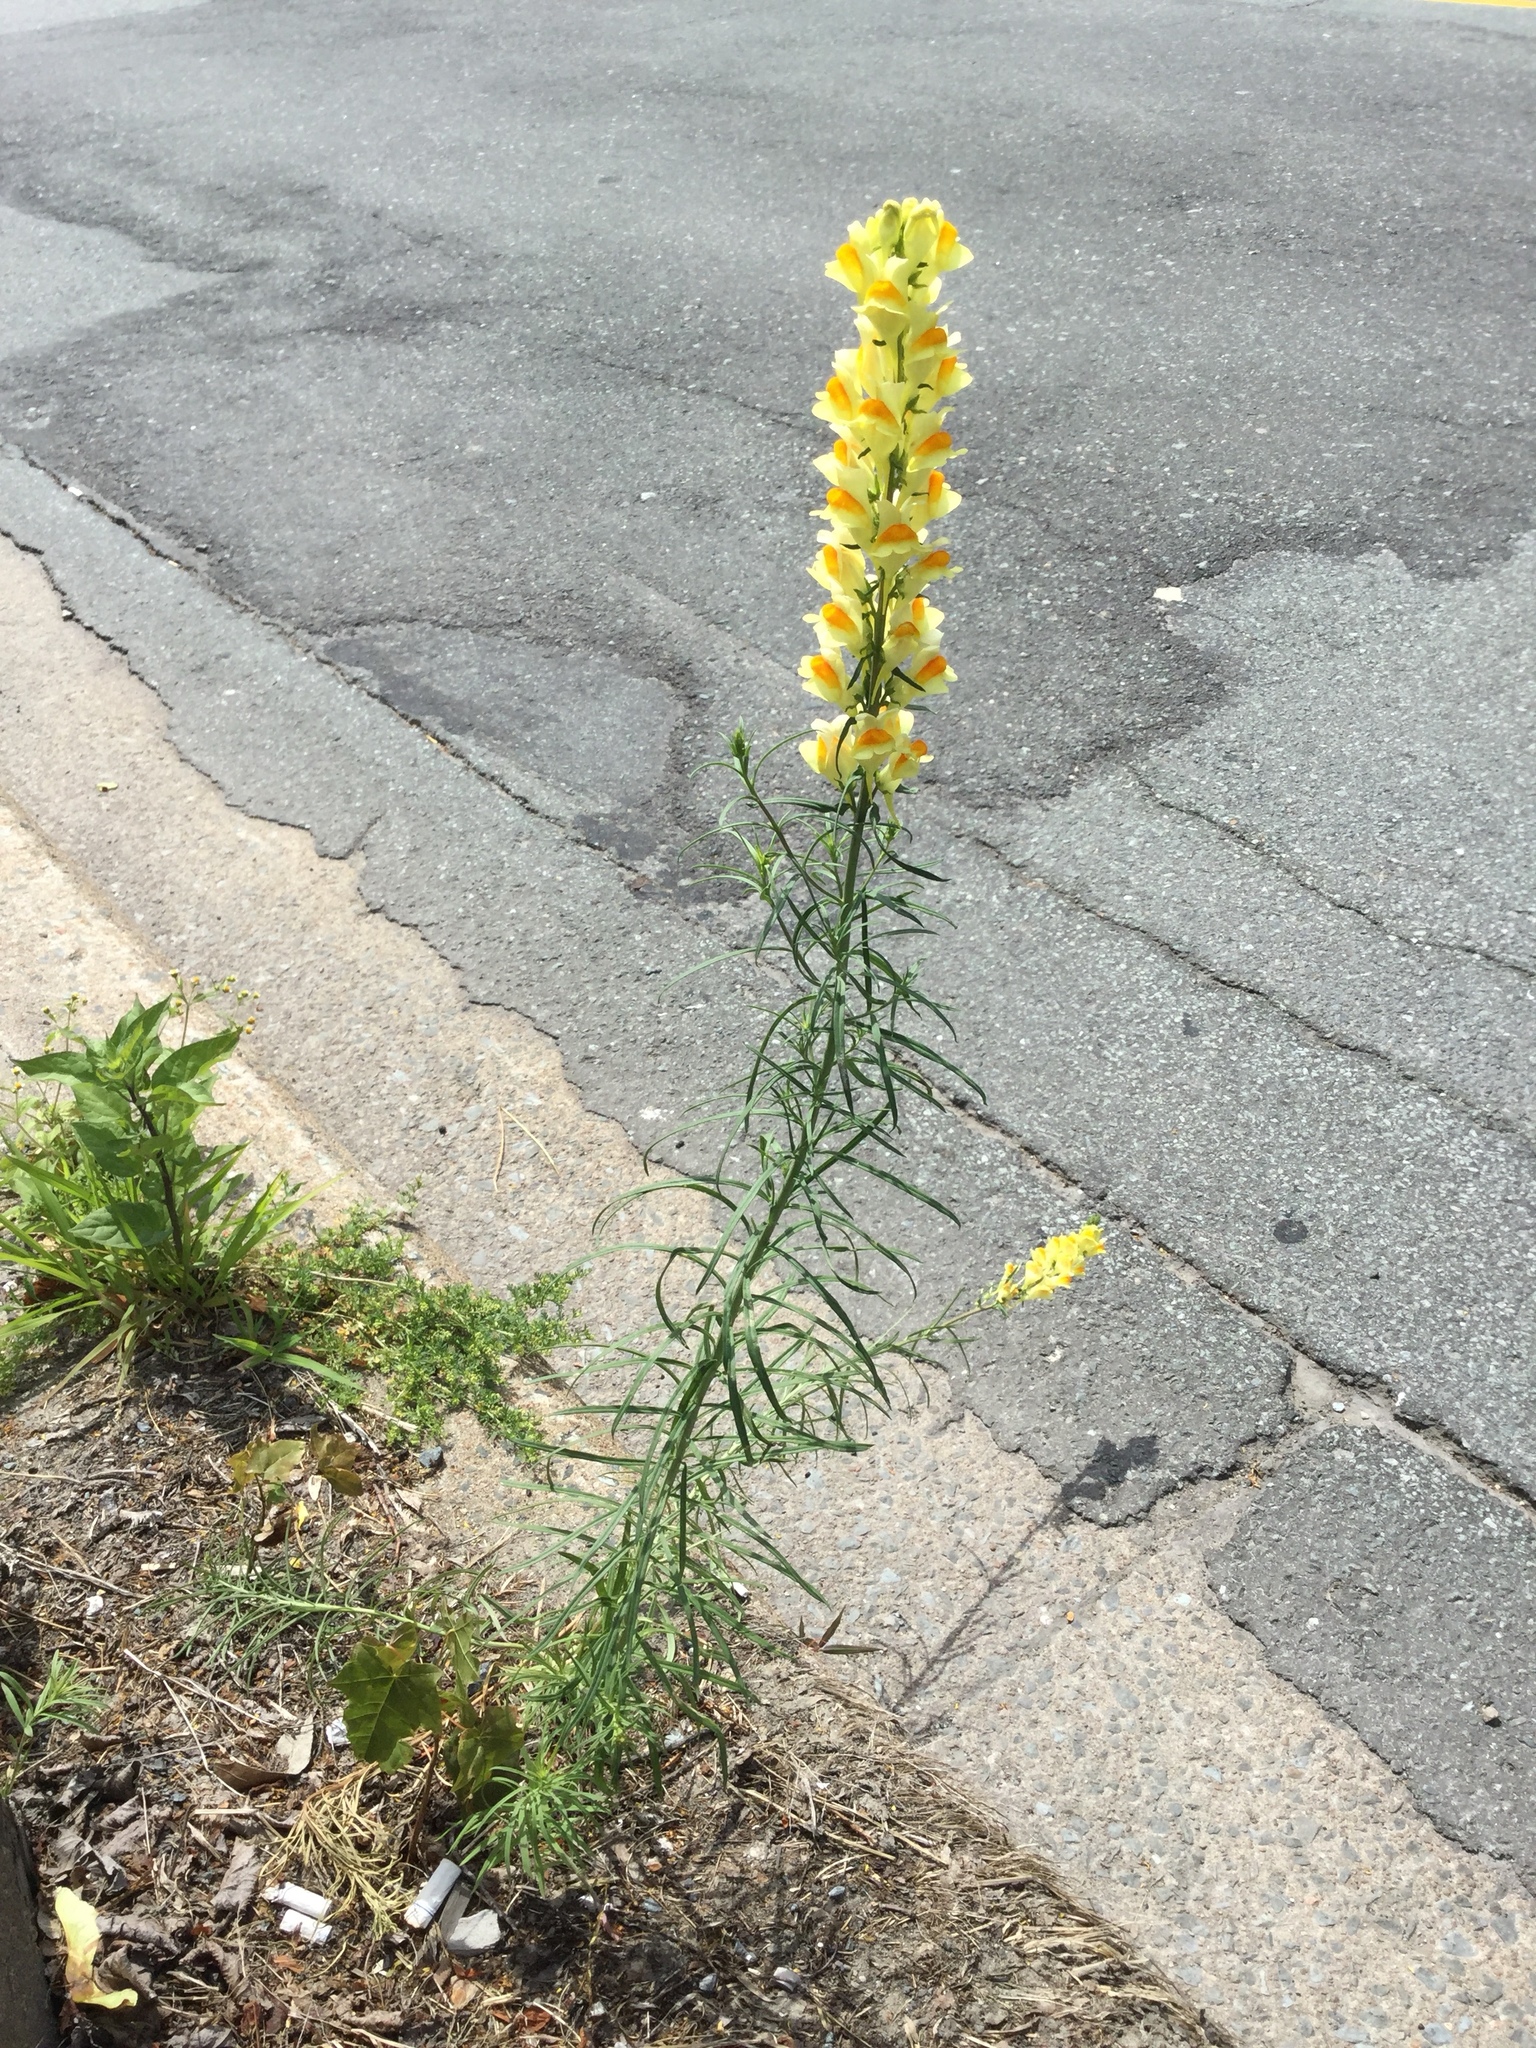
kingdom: Plantae
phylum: Tracheophyta
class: Magnoliopsida
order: Lamiales
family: Plantaginaceae
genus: Linaria
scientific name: Linaria vulgaris
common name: Butter and eggs
